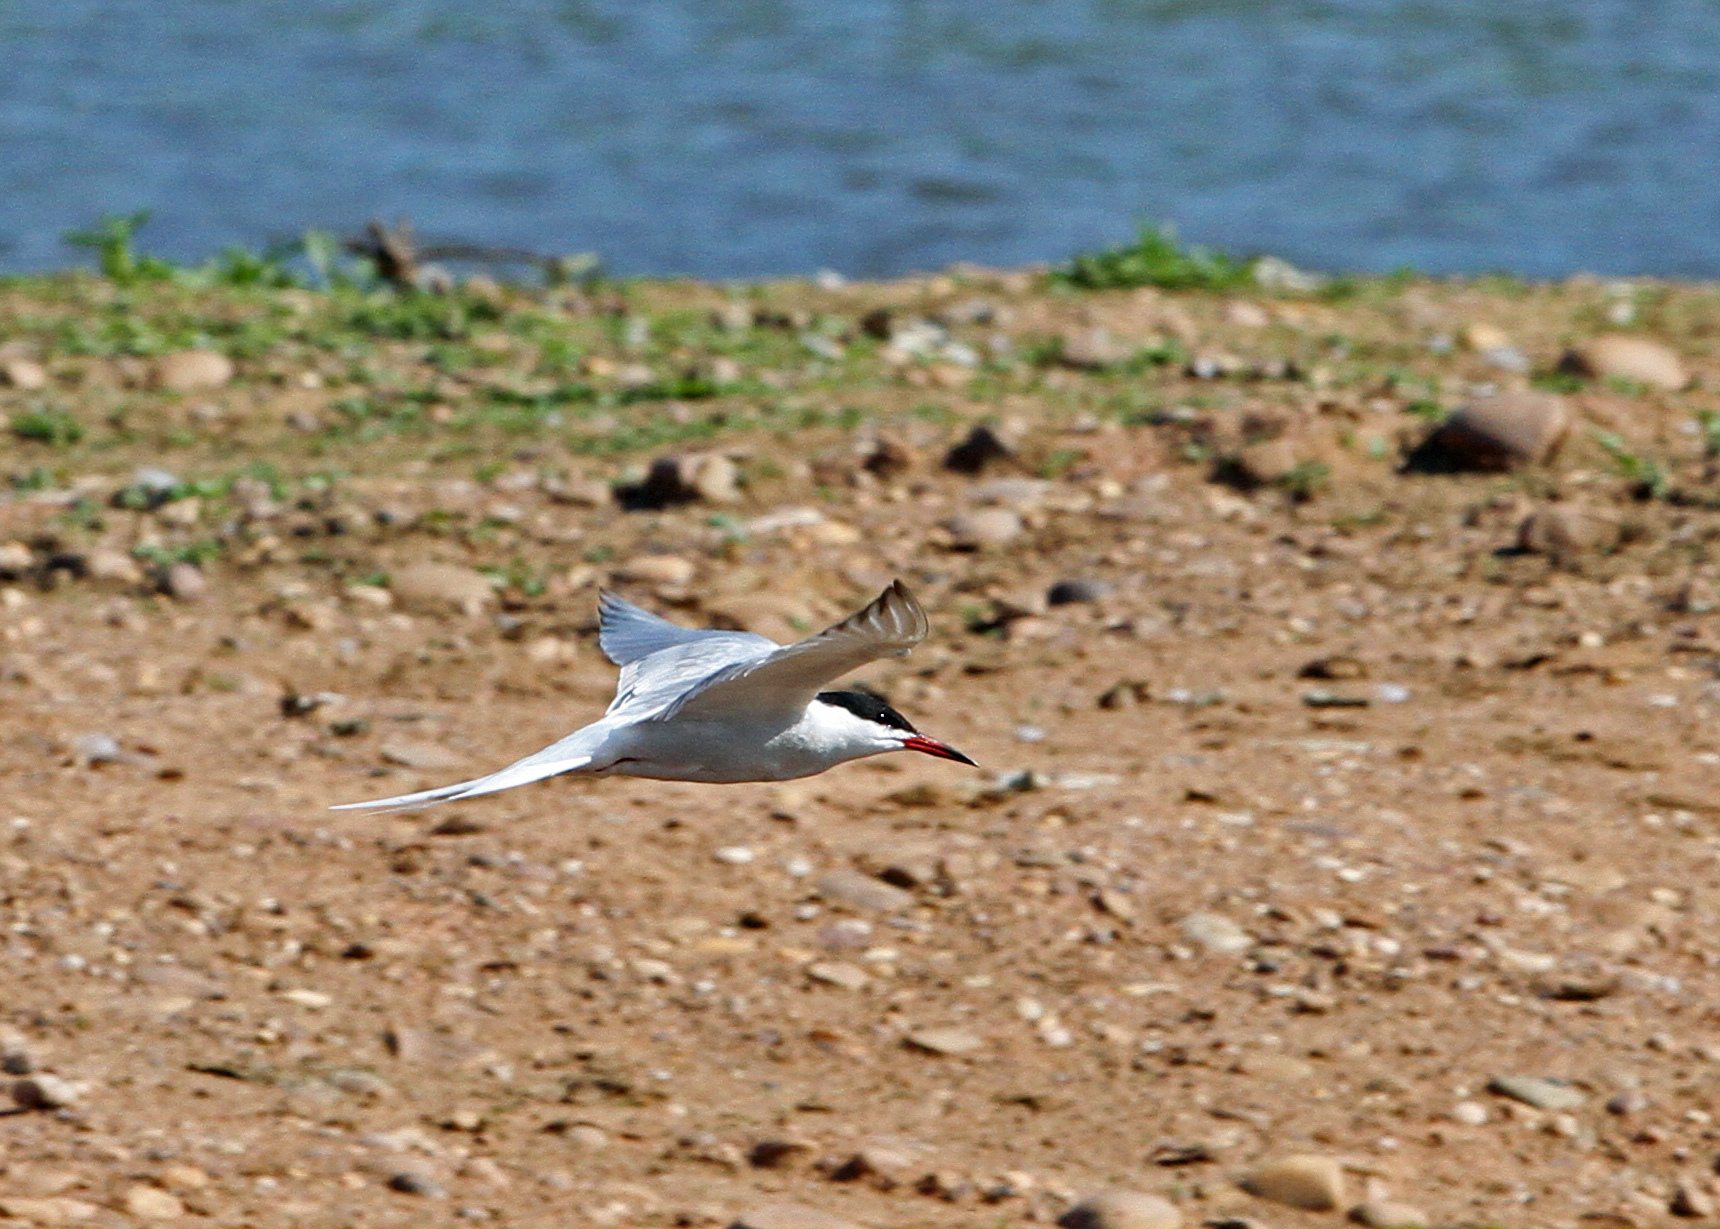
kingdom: Animalia
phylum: Chordata
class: Aves
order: Charadriiformes
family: Laridae
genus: Sterna
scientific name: Sterna hirundo
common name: Common tern
